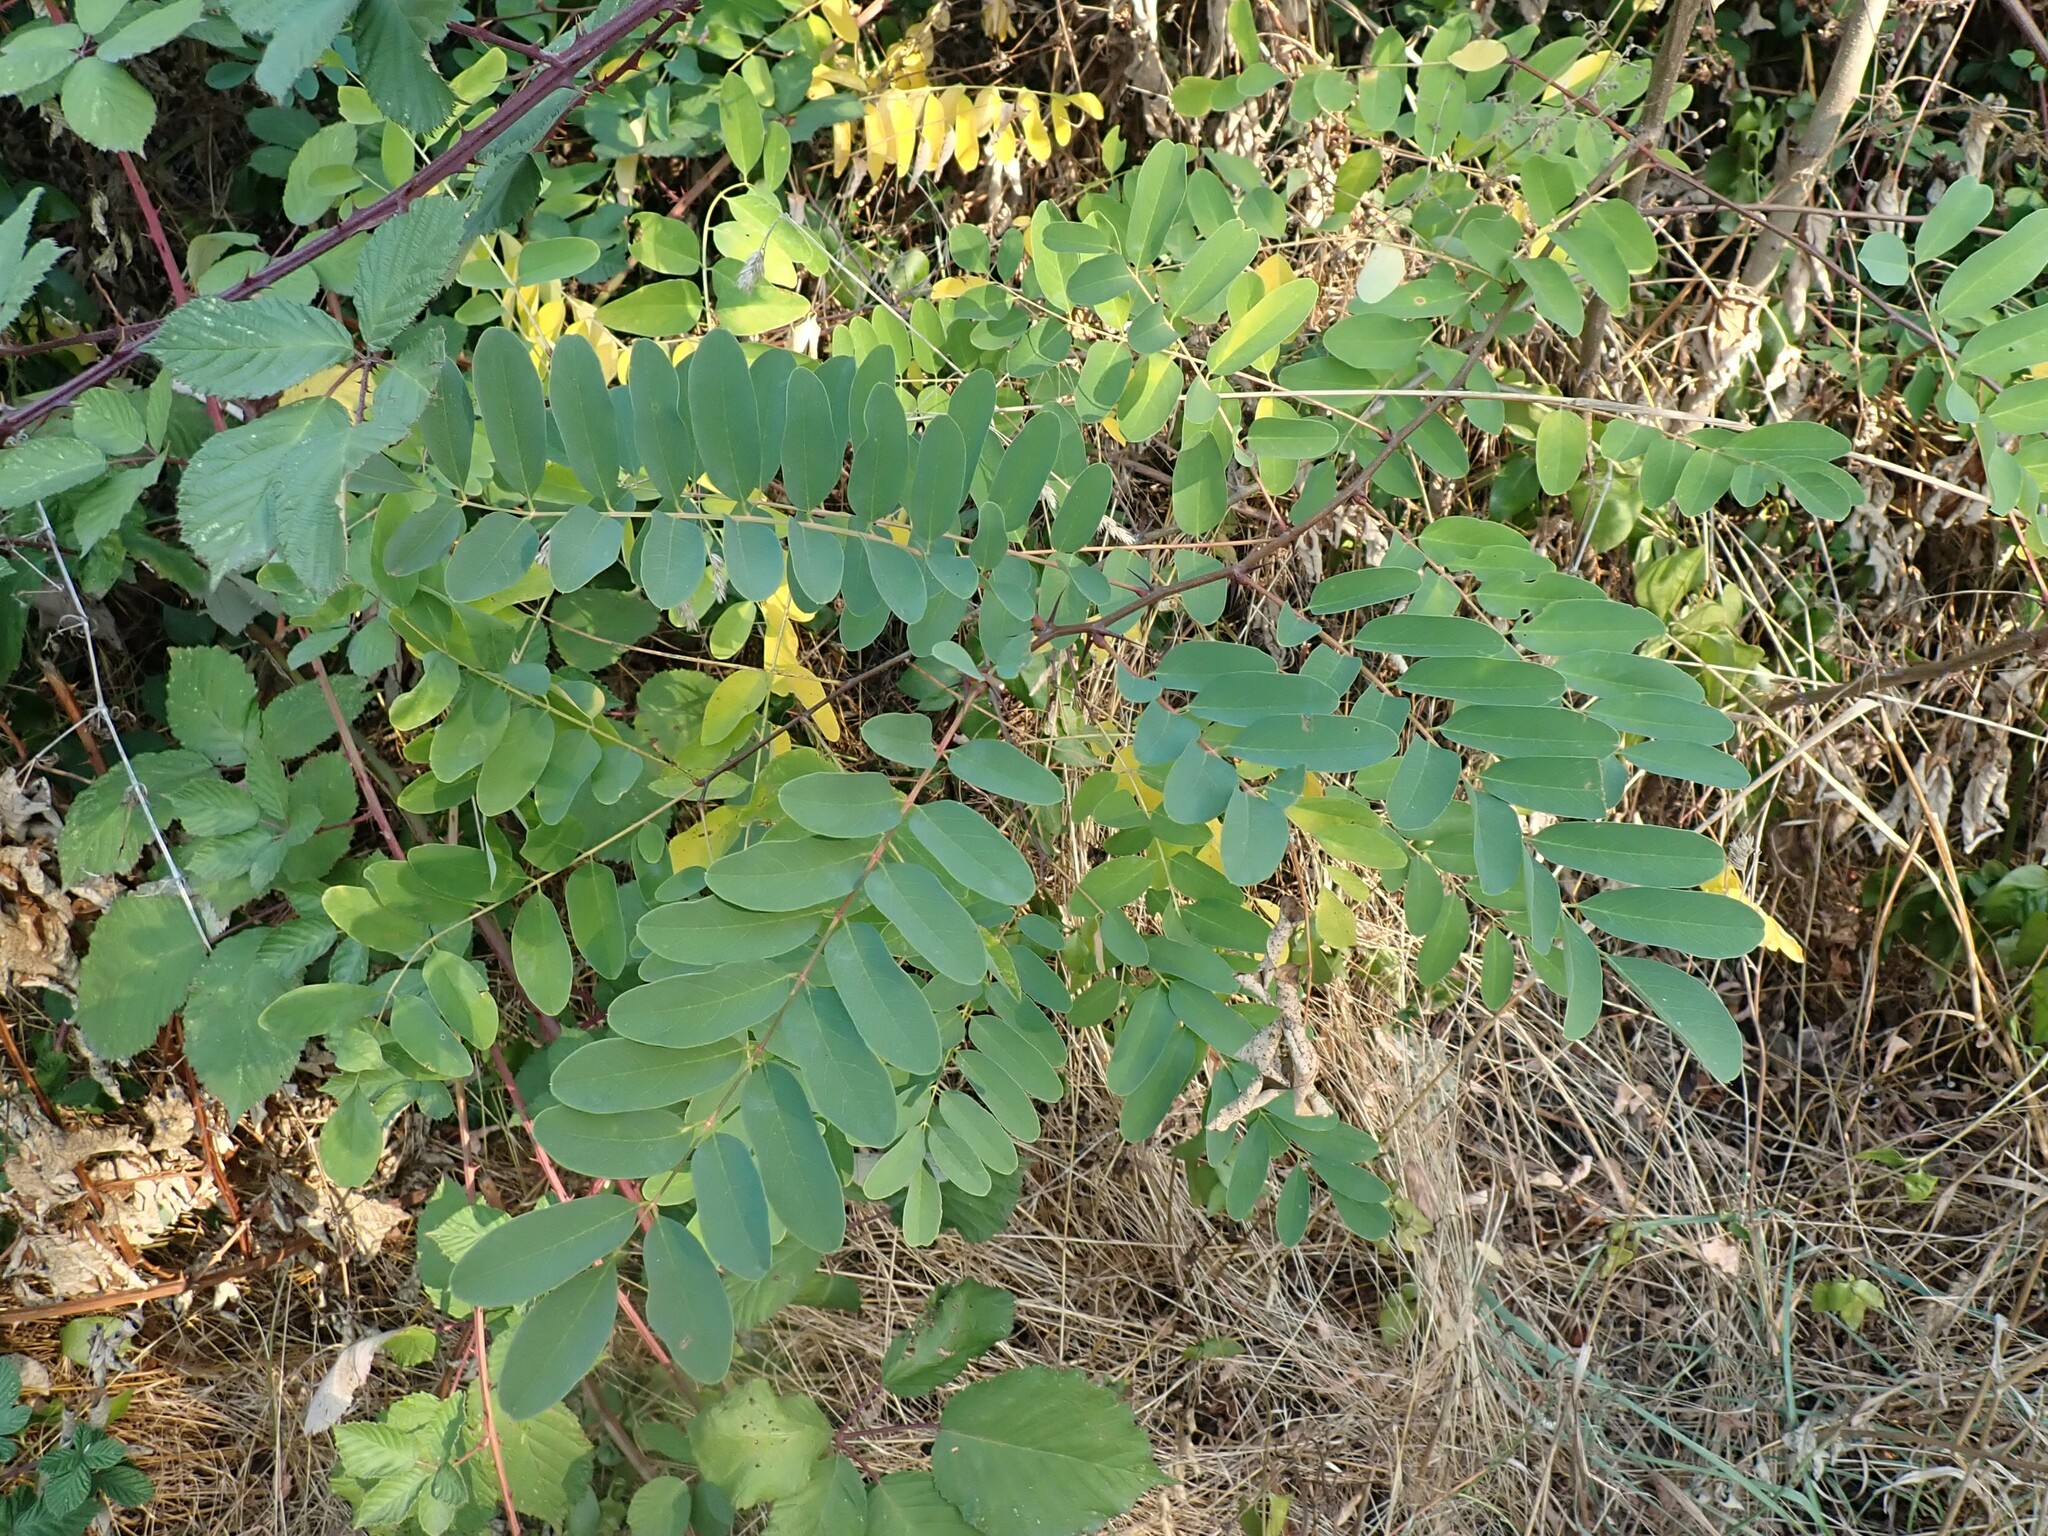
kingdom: Plantae
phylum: Tracheophyta
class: Magnoliopsida
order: Fabales
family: Fabaceae
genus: Robinia
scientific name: Robinia pseudoacacia
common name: Black locust
